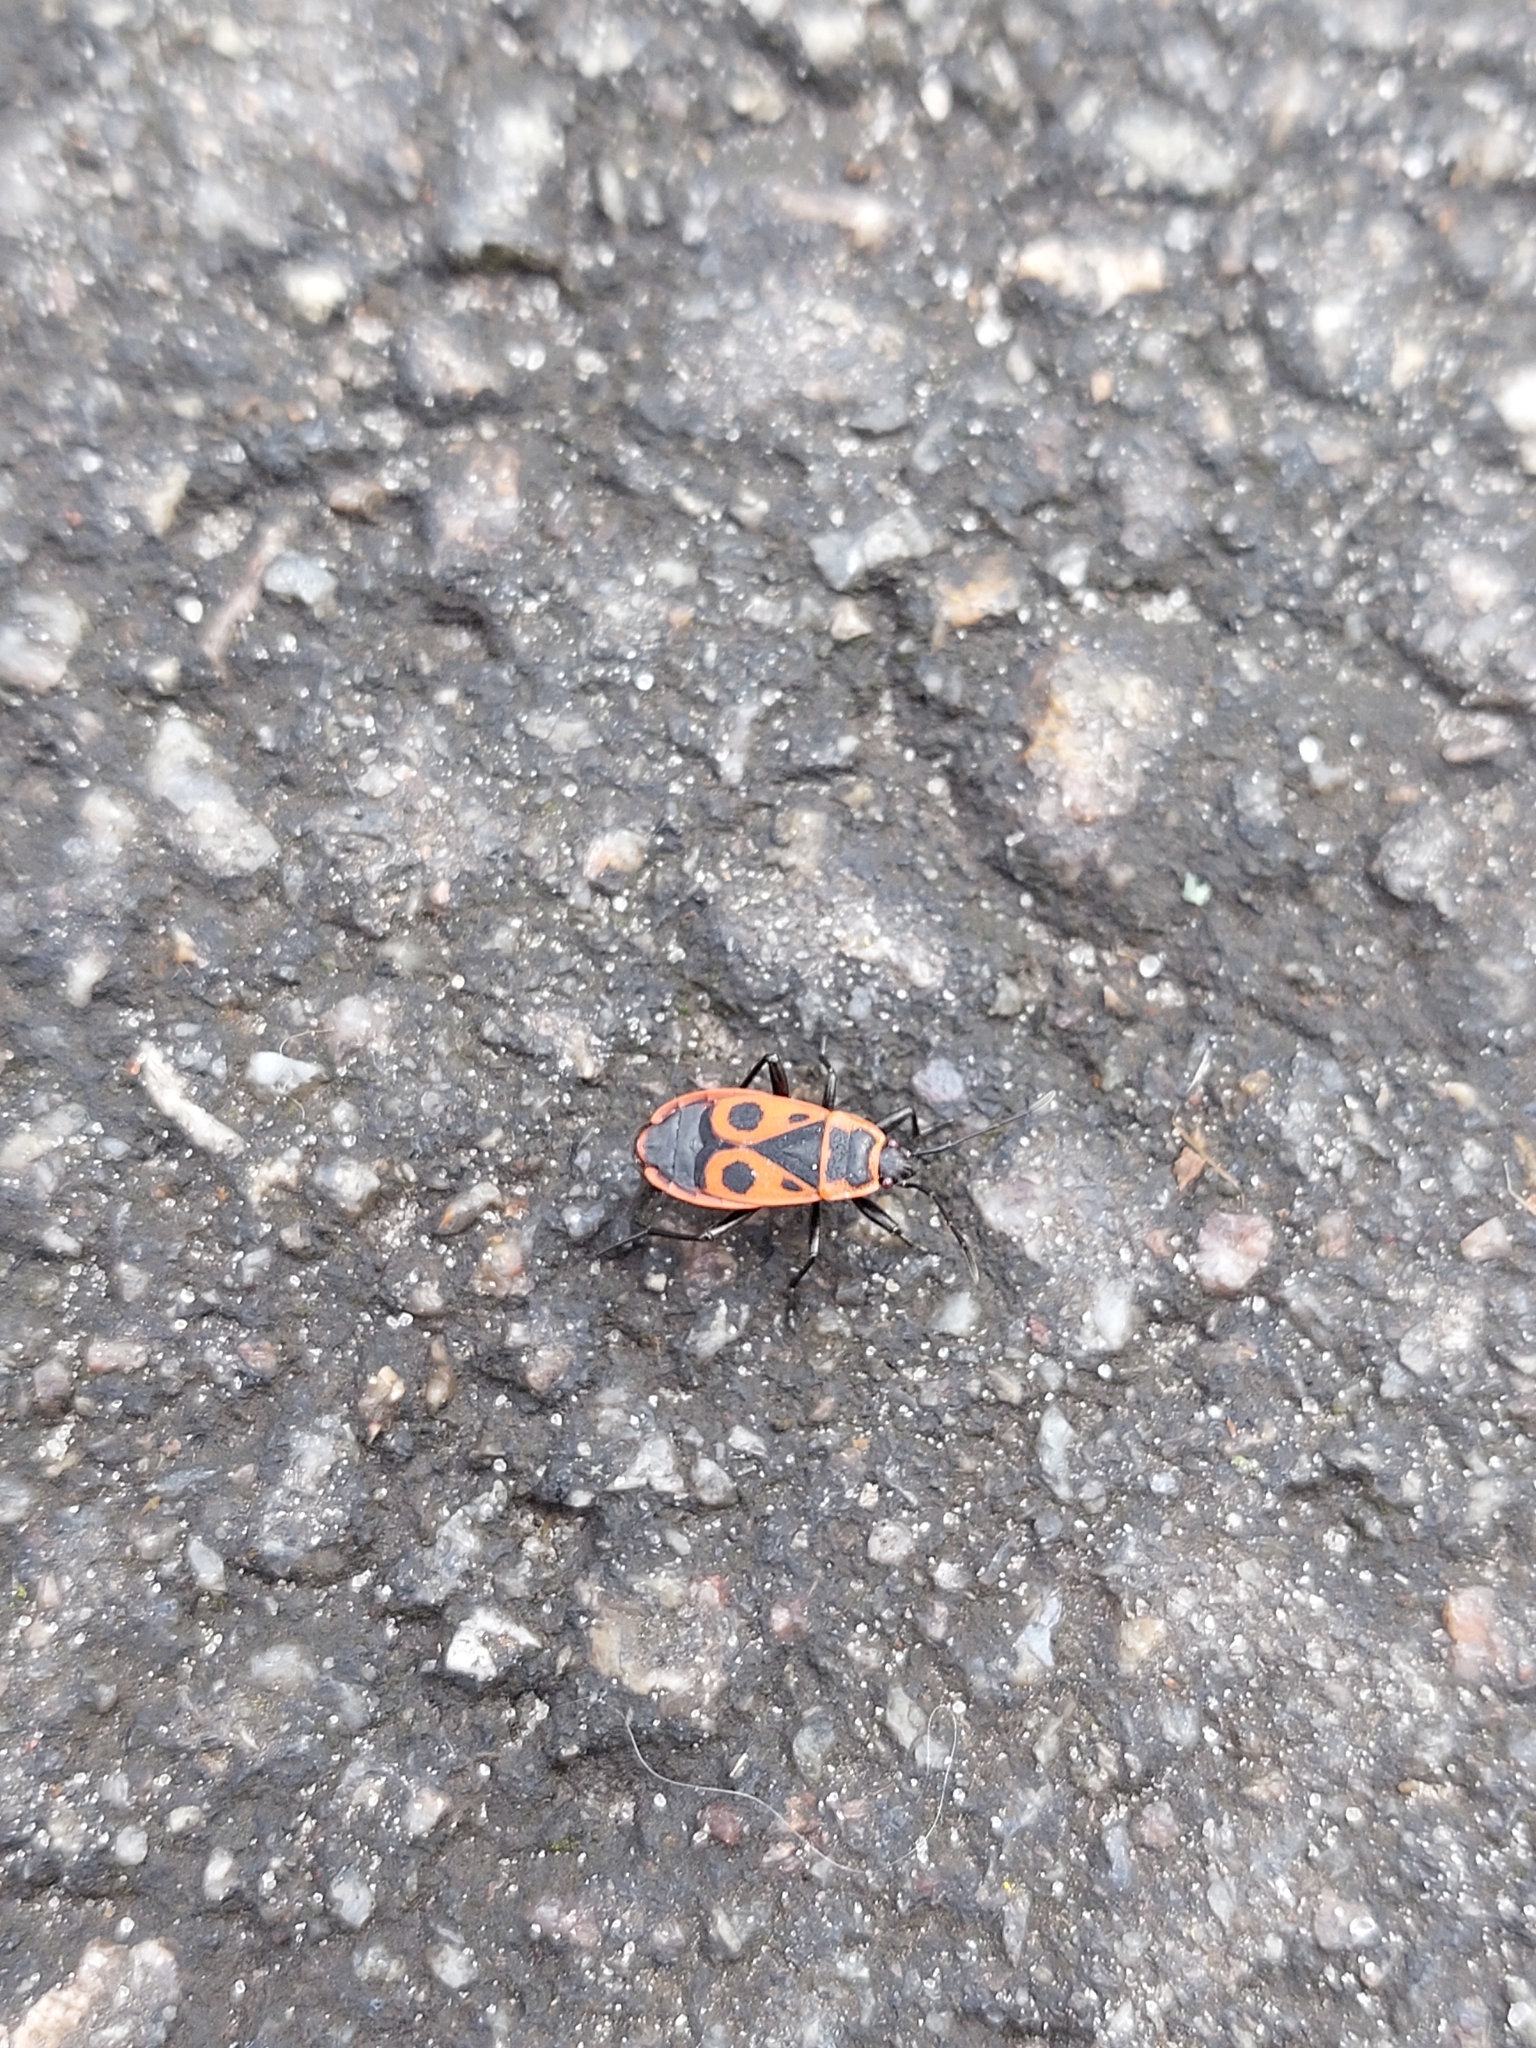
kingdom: Animalia
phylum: Arthropoda
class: Insecta
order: Hemiptera
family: Pyrrhocoridae
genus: Pyrrhocoris
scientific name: Pyrrhocoris apterus
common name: Firebug
